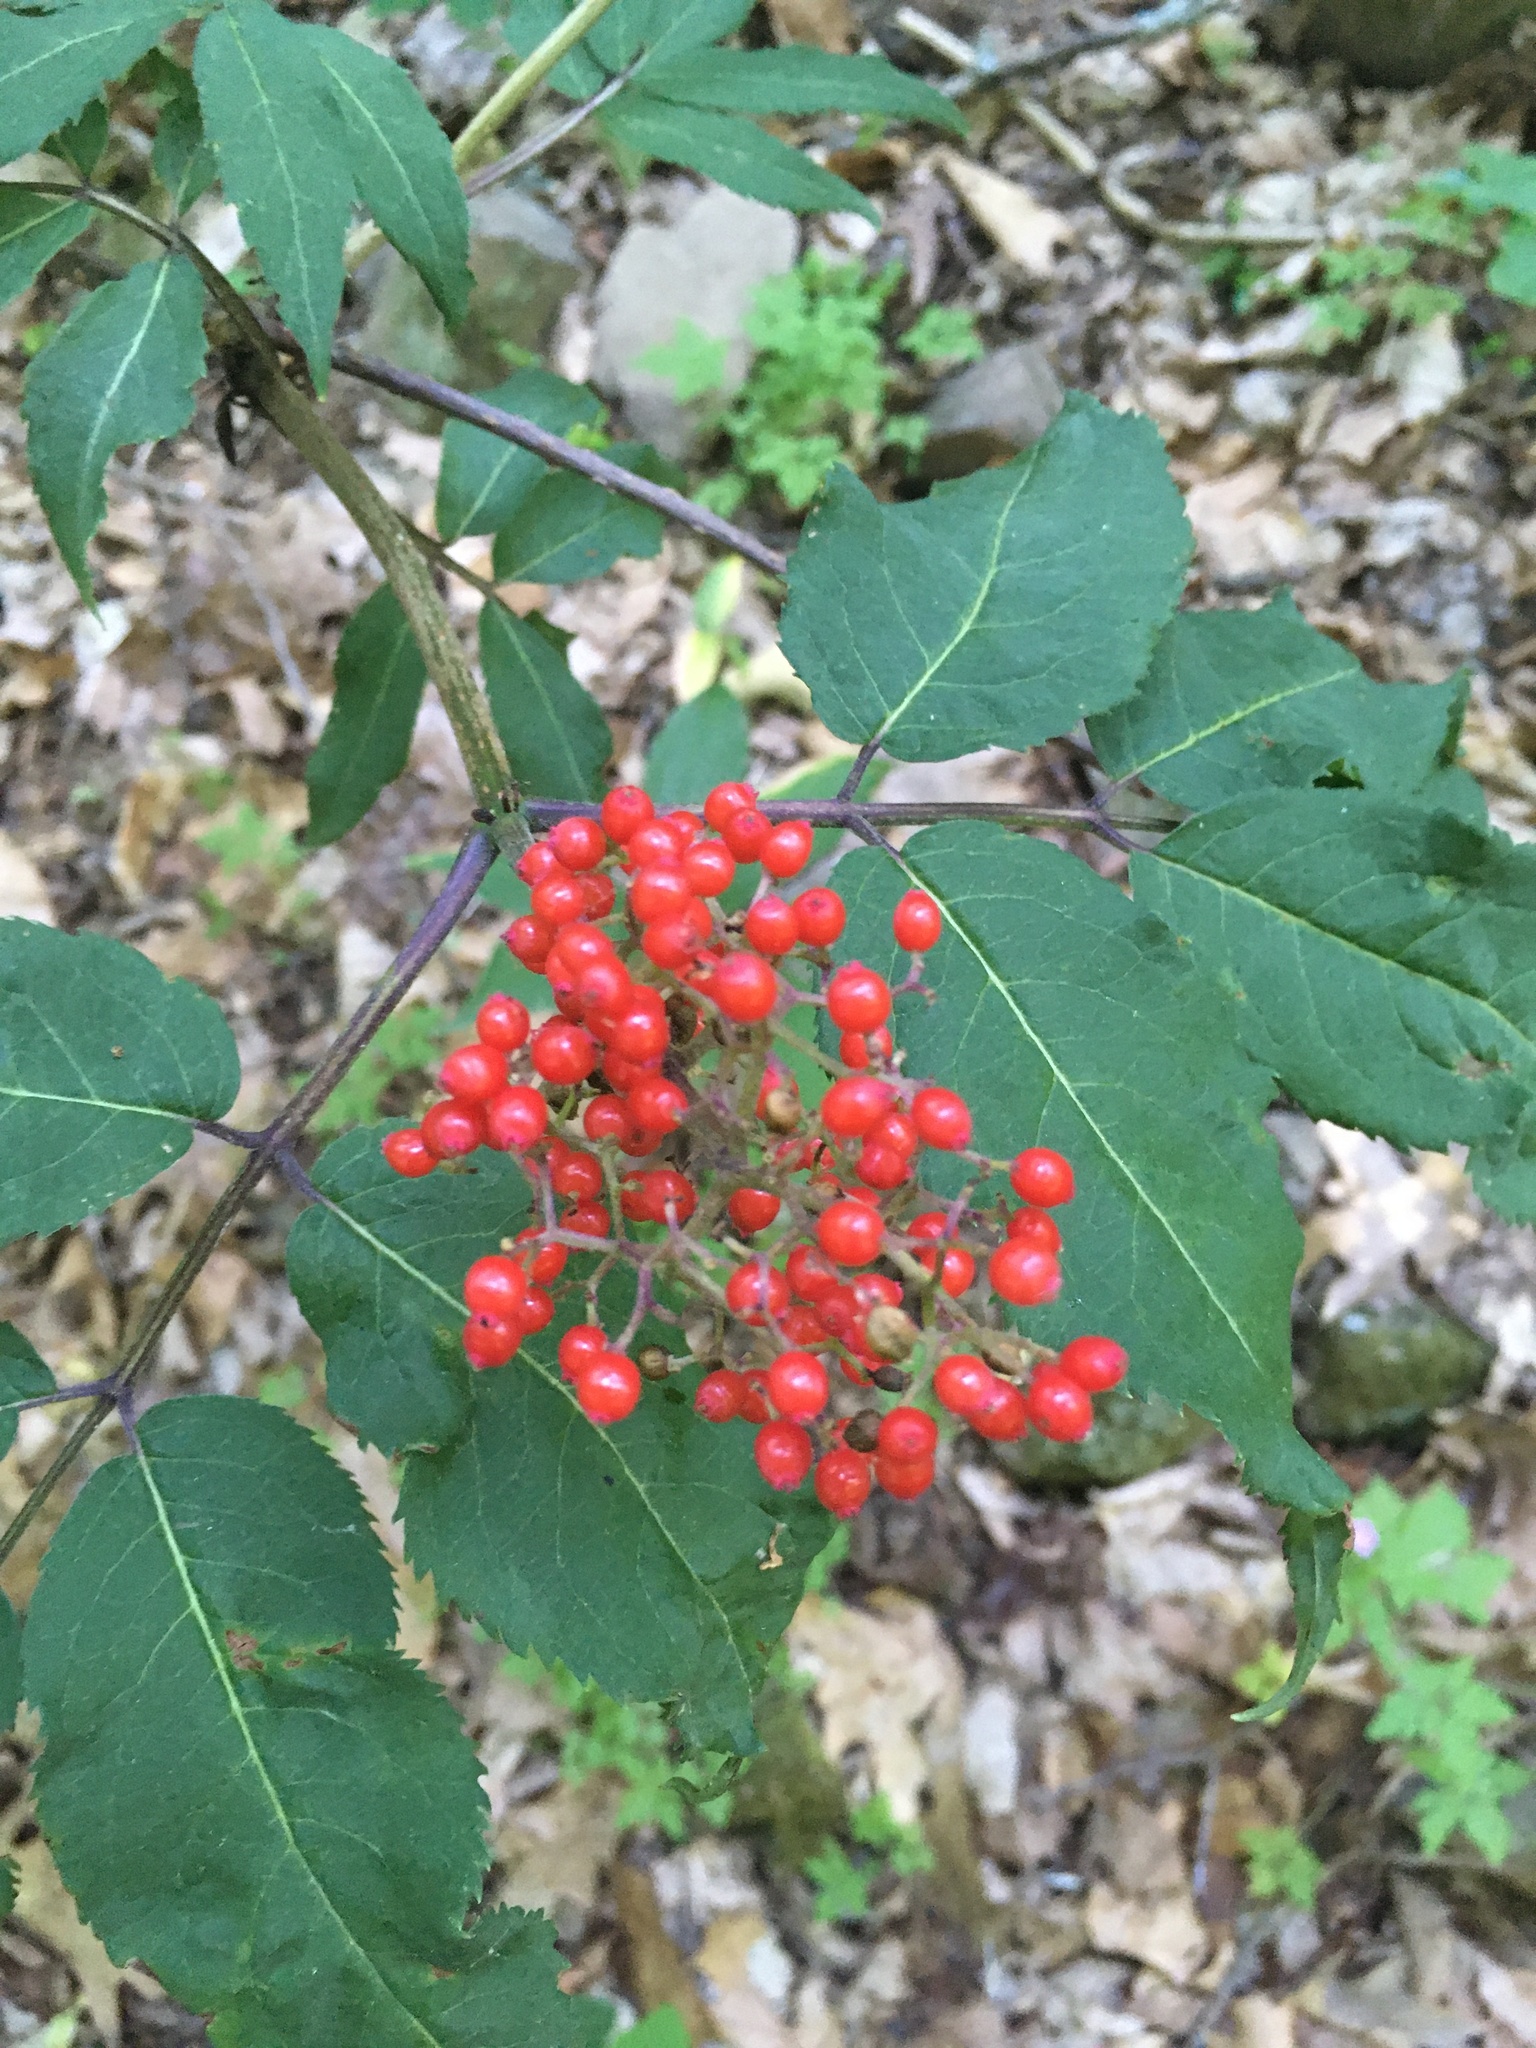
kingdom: Plantae
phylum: Tracheophyta
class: Magnoliopsida
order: Dipsacales
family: Viburnaceae
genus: Sambucus
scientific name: Sambucus racemosa
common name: Red-berried elder
